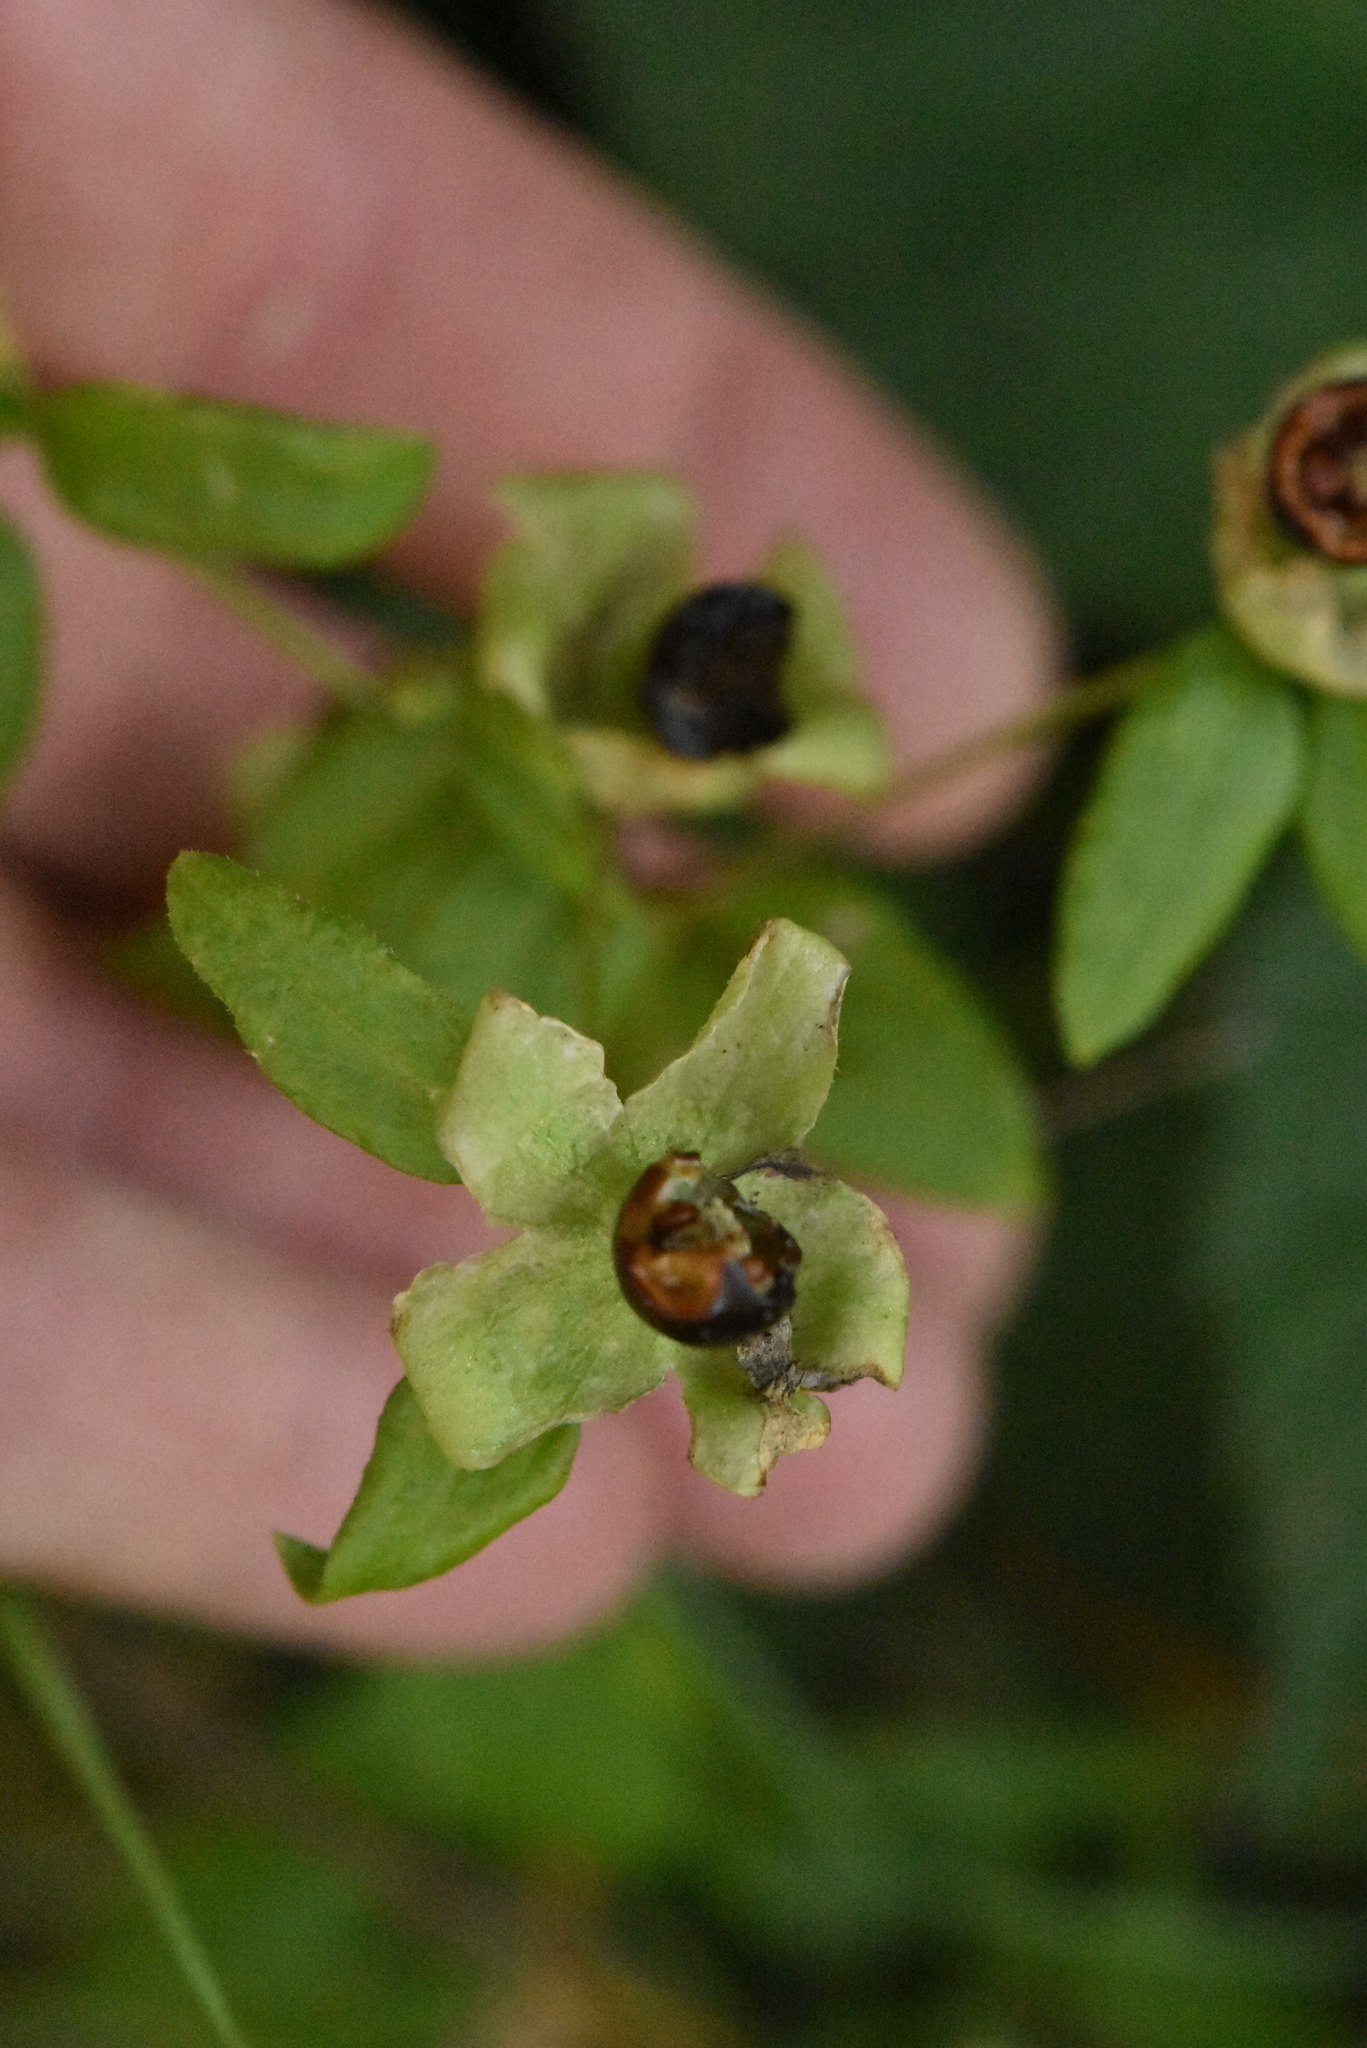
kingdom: Plantae
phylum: Tracheophyta
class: Magnoliopsida
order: Caryophyllales
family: Caryophyllaceae
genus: Silene
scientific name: Silene baccifera
